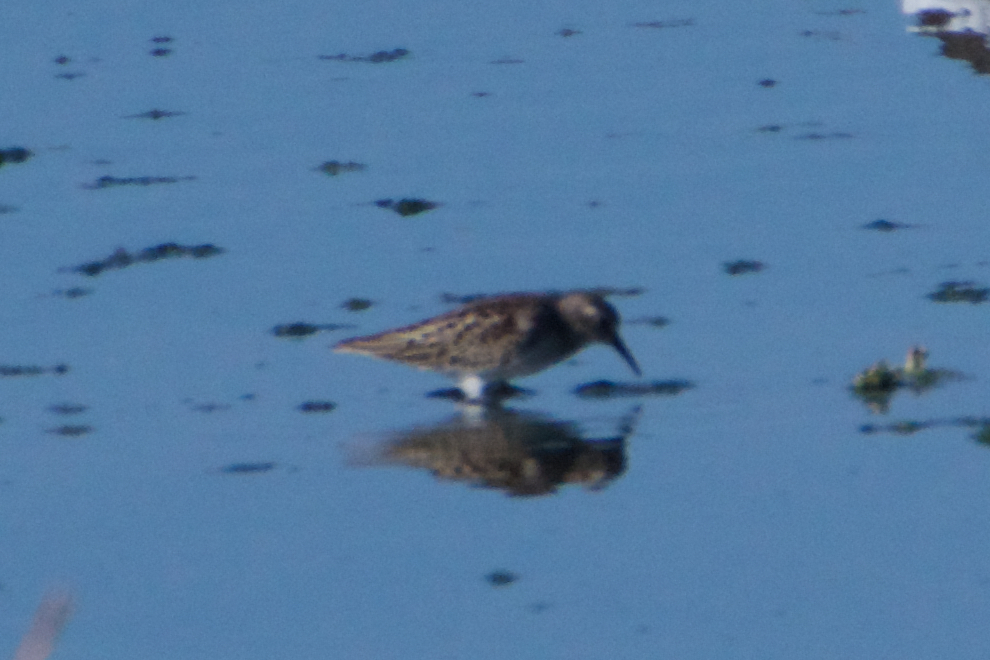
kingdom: Animalia
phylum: Chordata
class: Aves
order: Charadriiformes
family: Scolopacidae
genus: Calidris
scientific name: Calidris minutilla
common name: Least sandpiper
